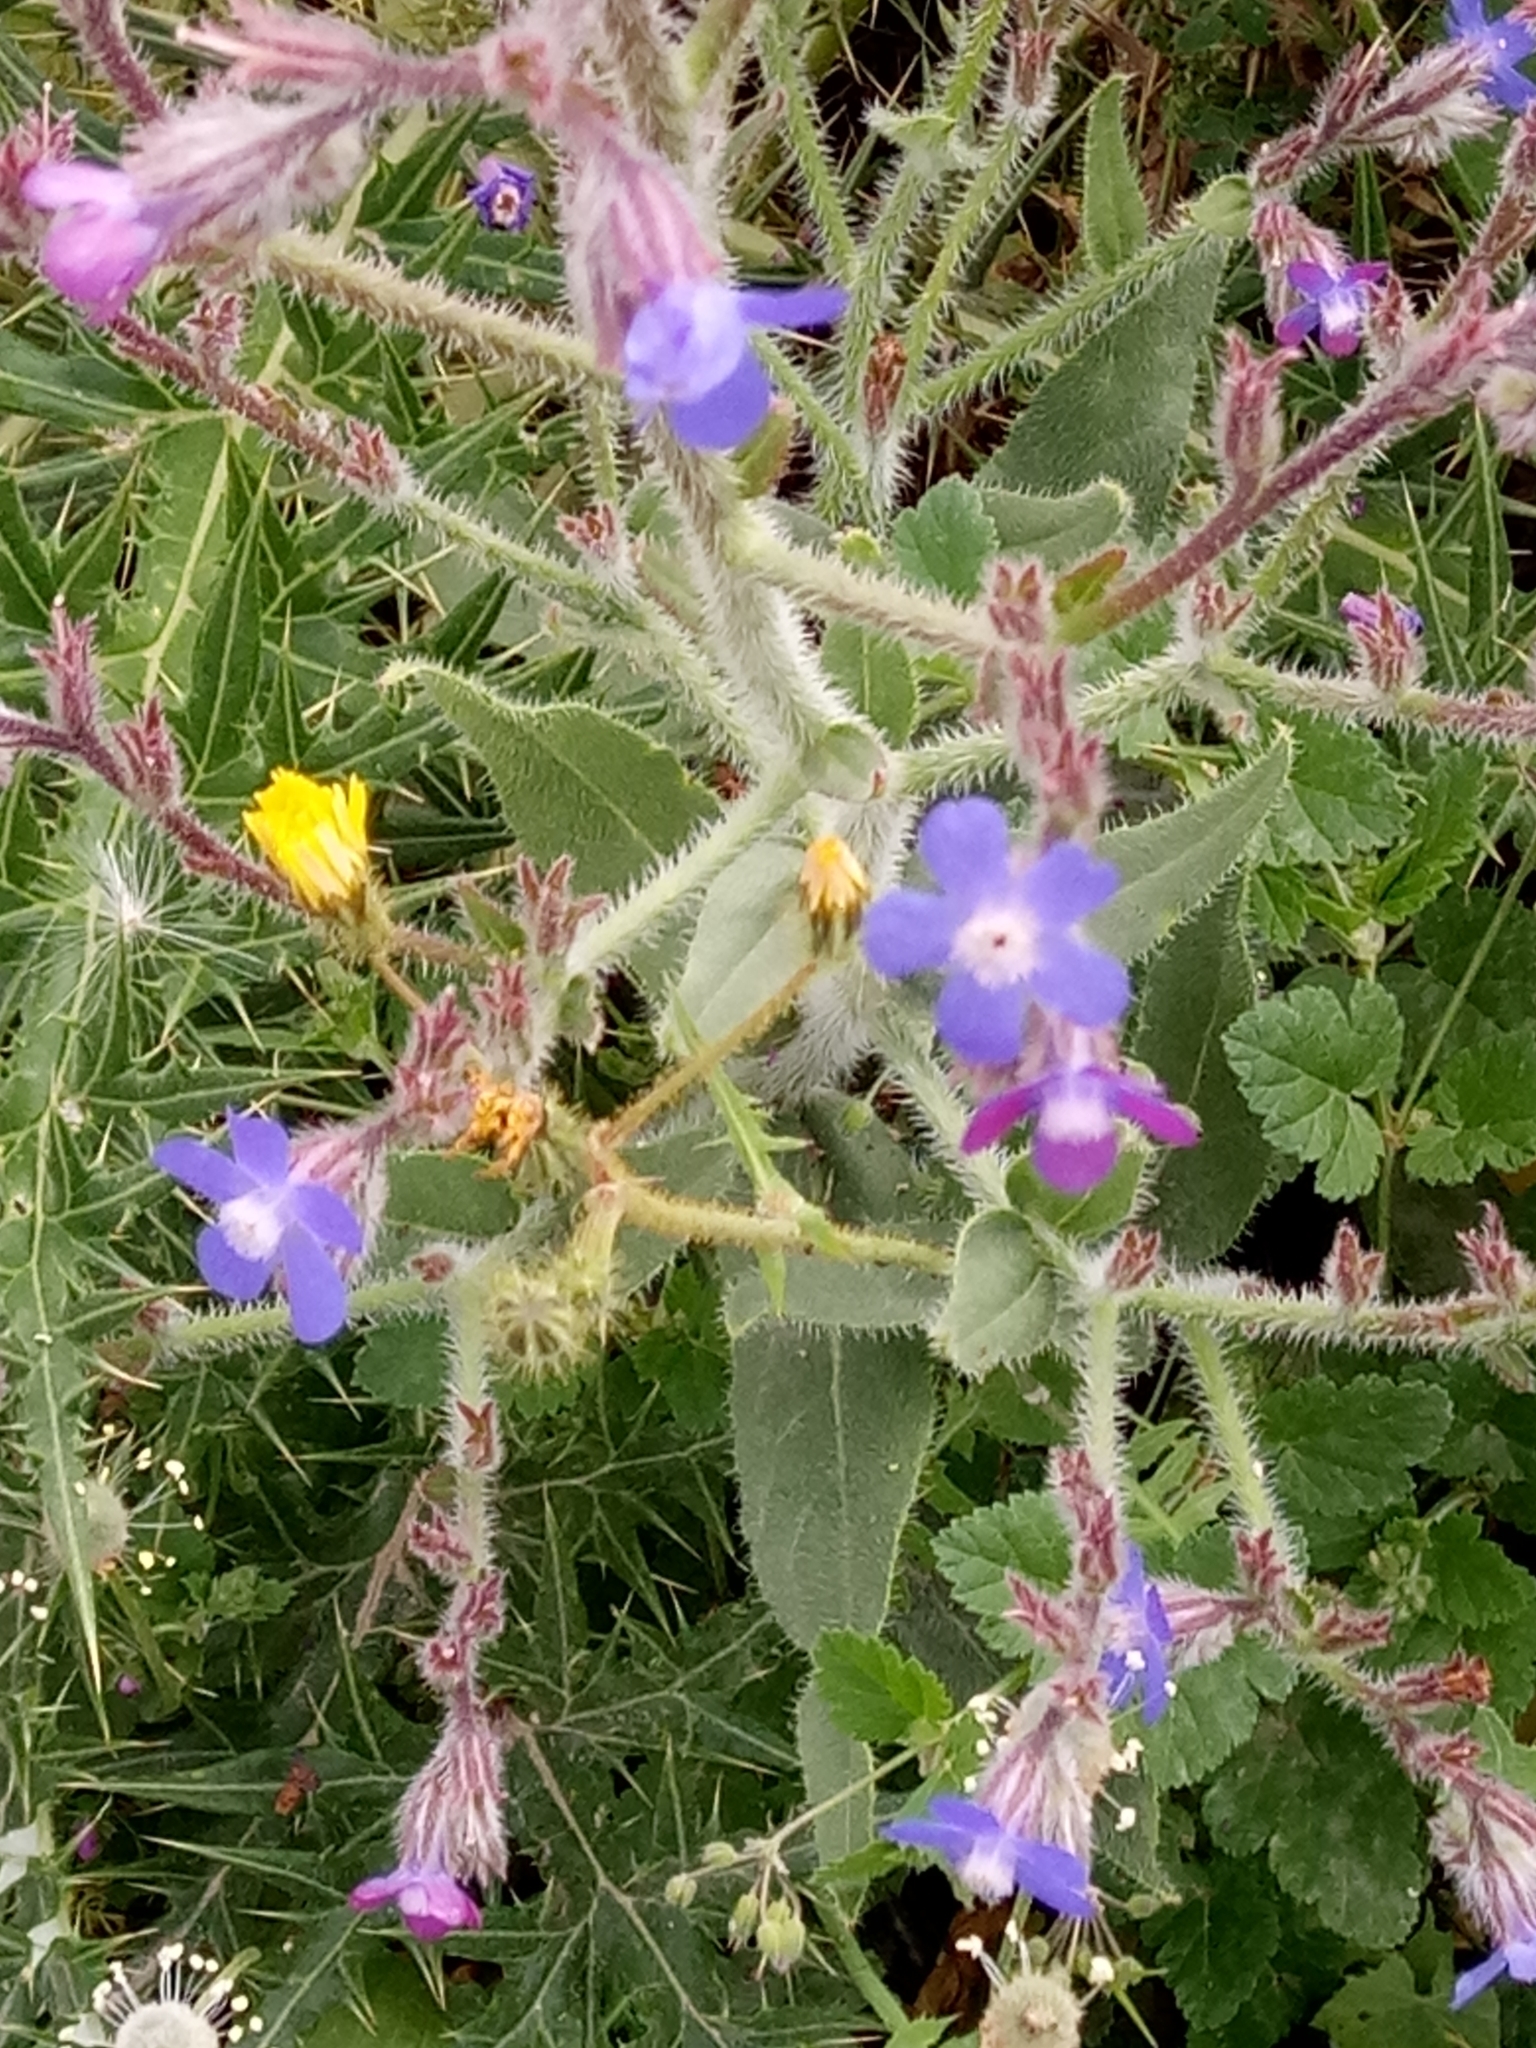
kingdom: Plantae
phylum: Tracheophyta
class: Magnoliopsida
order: Boraginales
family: Boraginaceae
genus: Anchusa
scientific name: Anchusa azurea
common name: Garden anchusa
